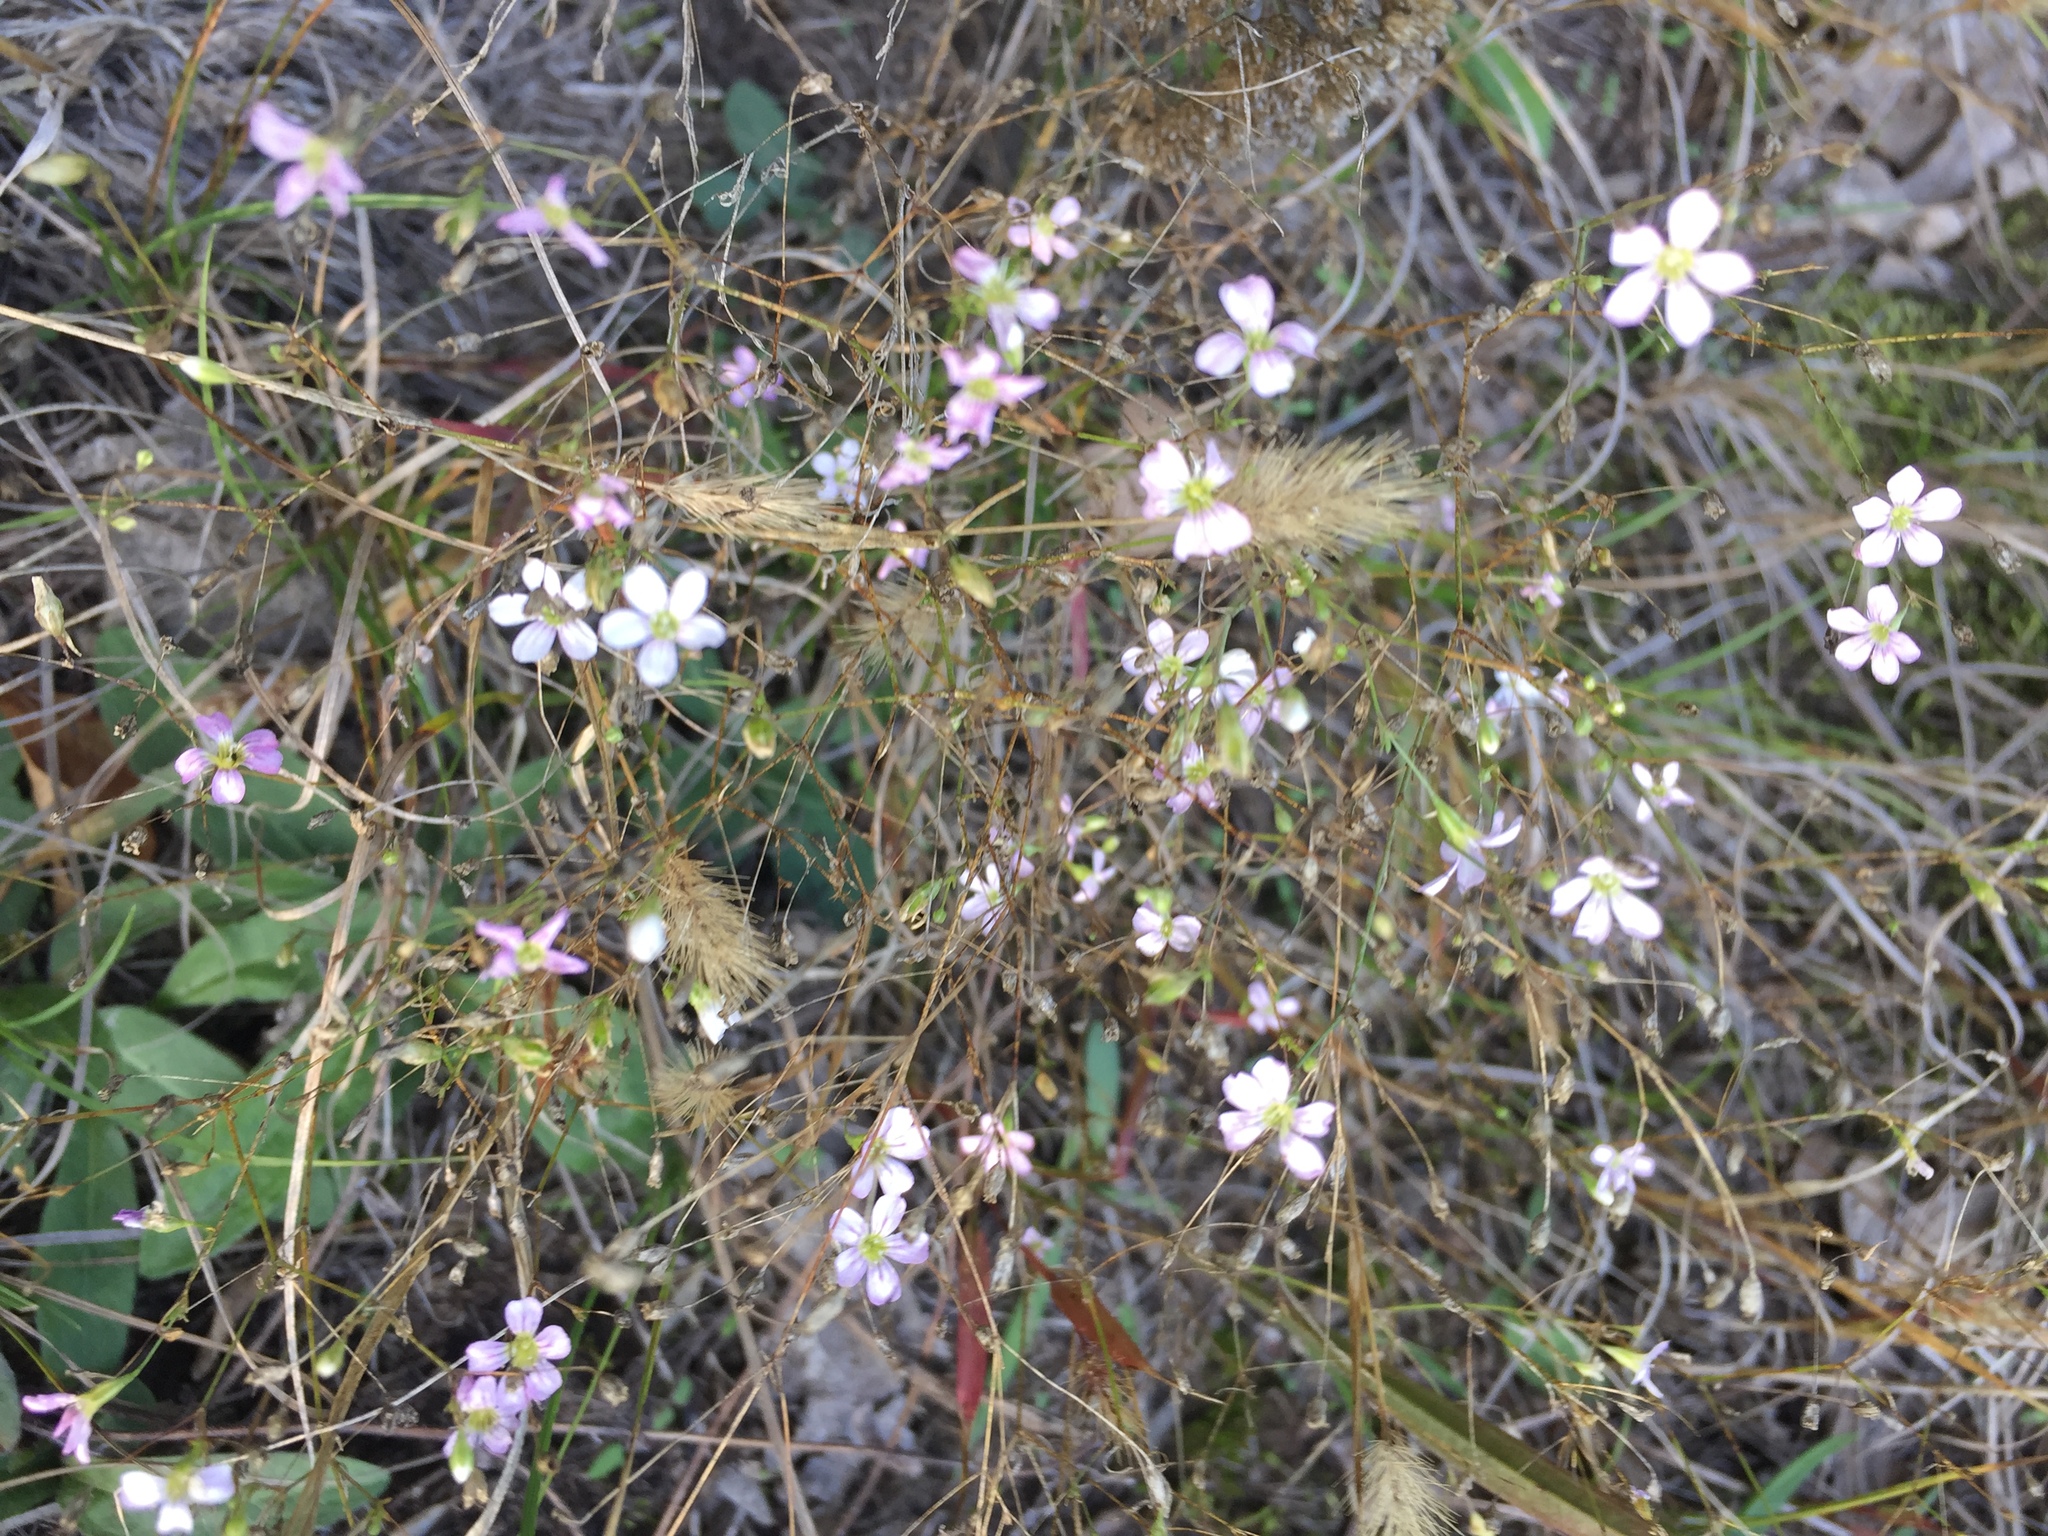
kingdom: Plantae
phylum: Tracheophyta
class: Magnoliopsida
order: Caryophyllales
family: Caryophyllaceae
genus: Psammophiliella
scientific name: Psammophiliella muralis
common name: Cushion baby's-breath
